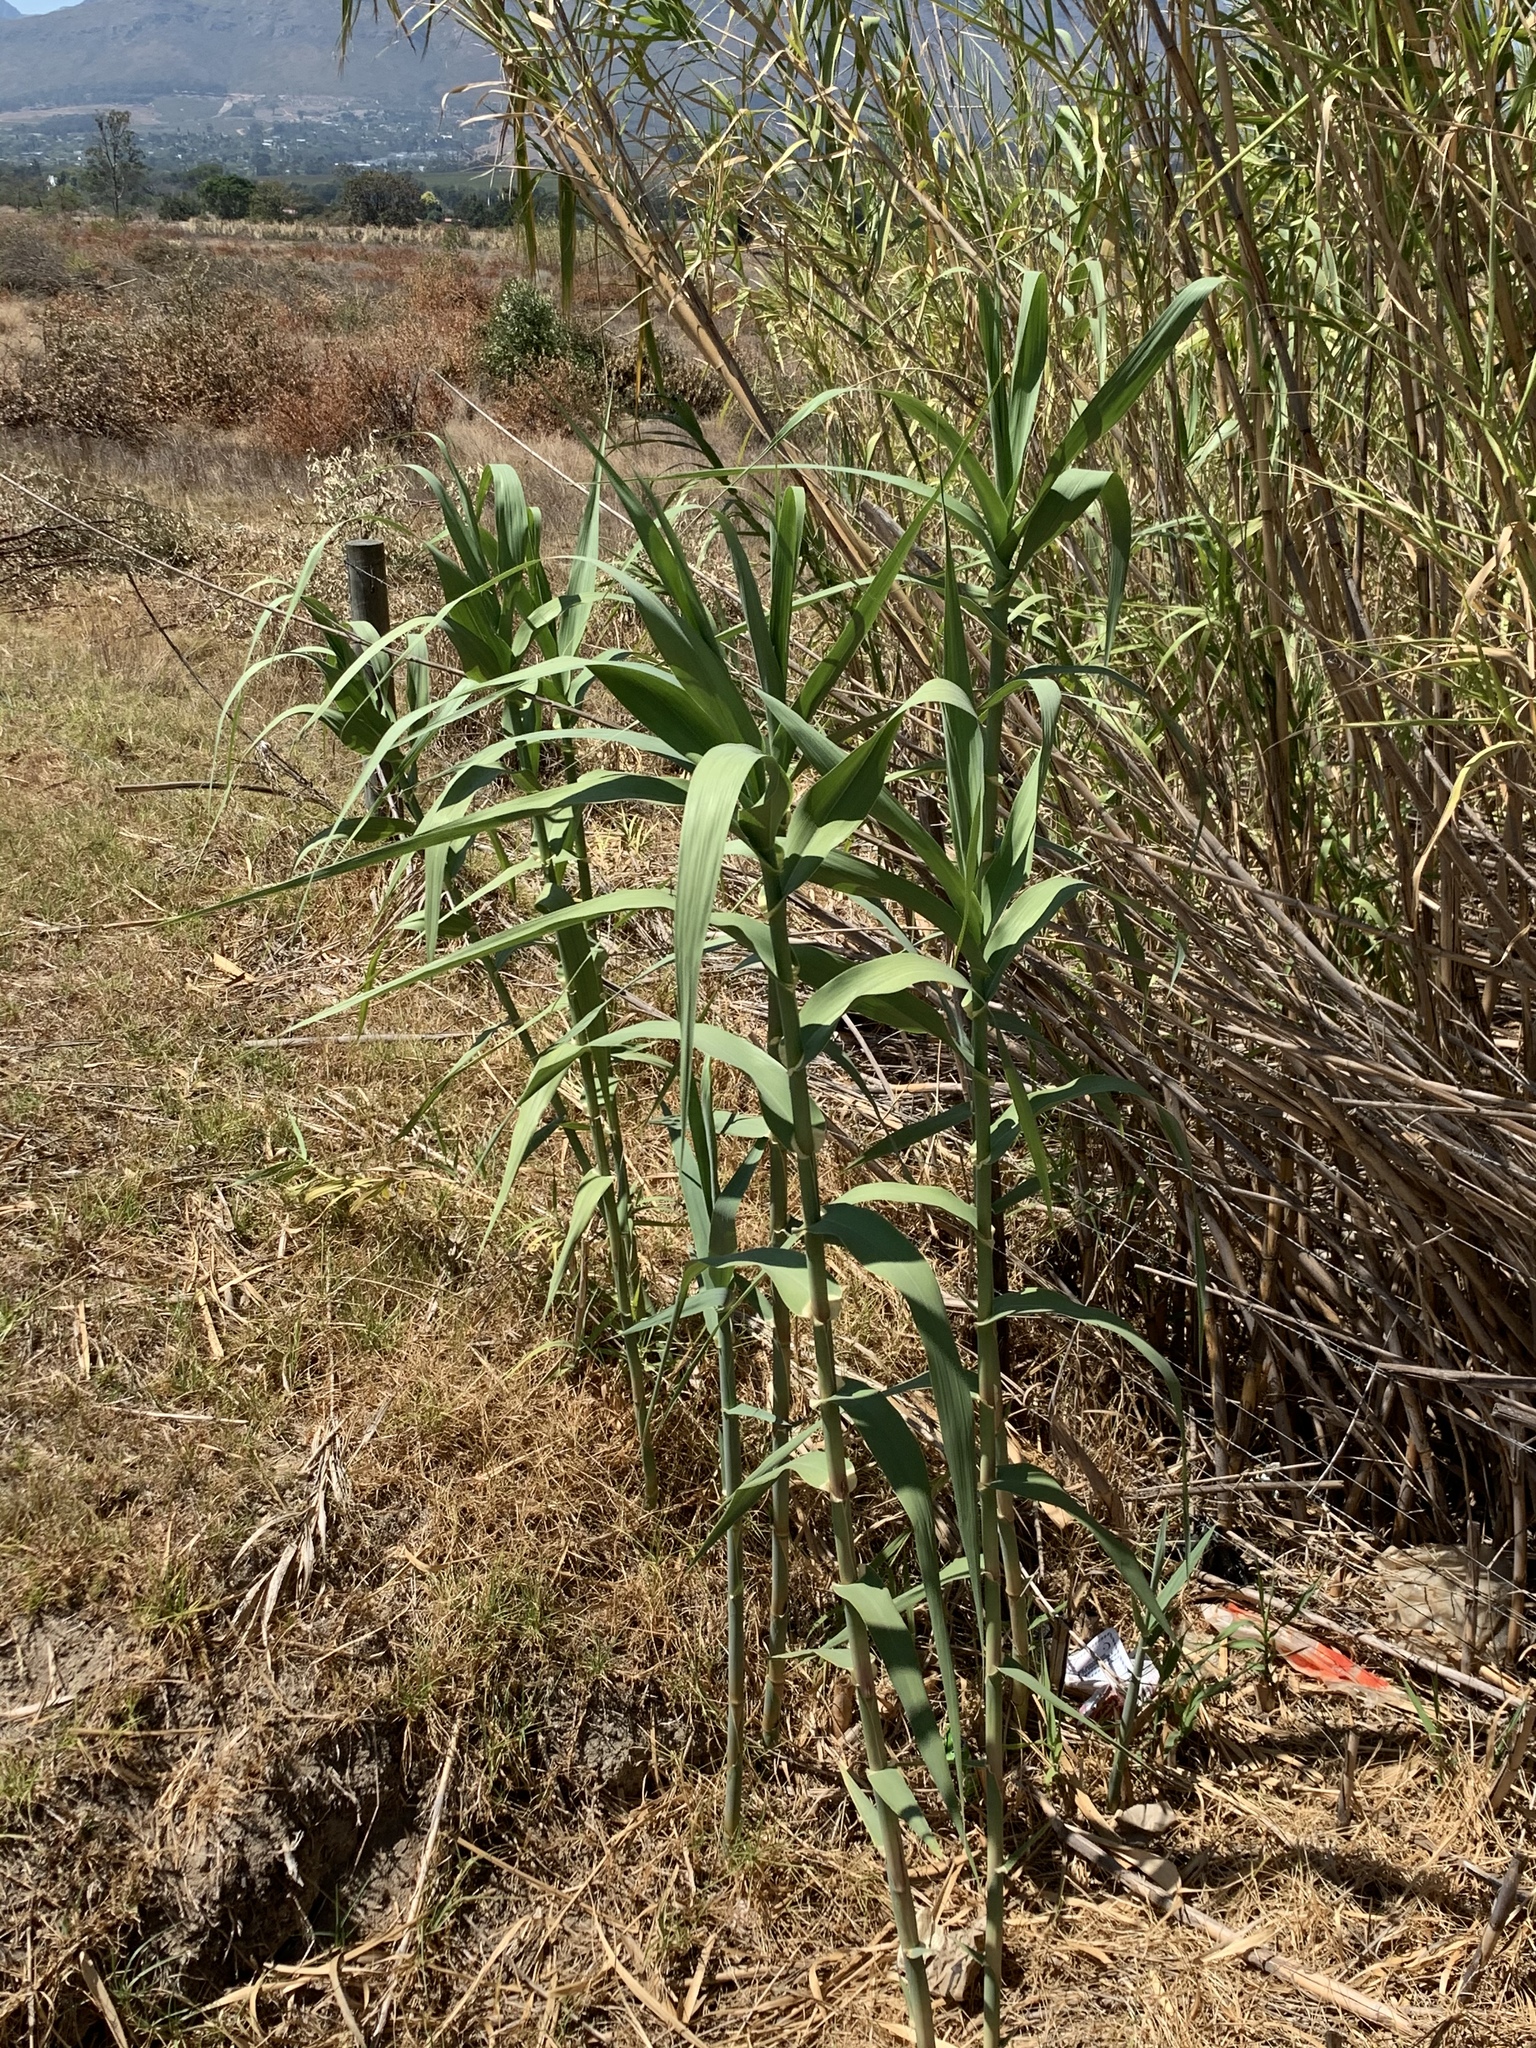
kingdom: Plantae
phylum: Tracheophyta
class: Liliopsida
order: Poales
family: Poaceae
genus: Arundo
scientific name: Arundo donax
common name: Giant reed
